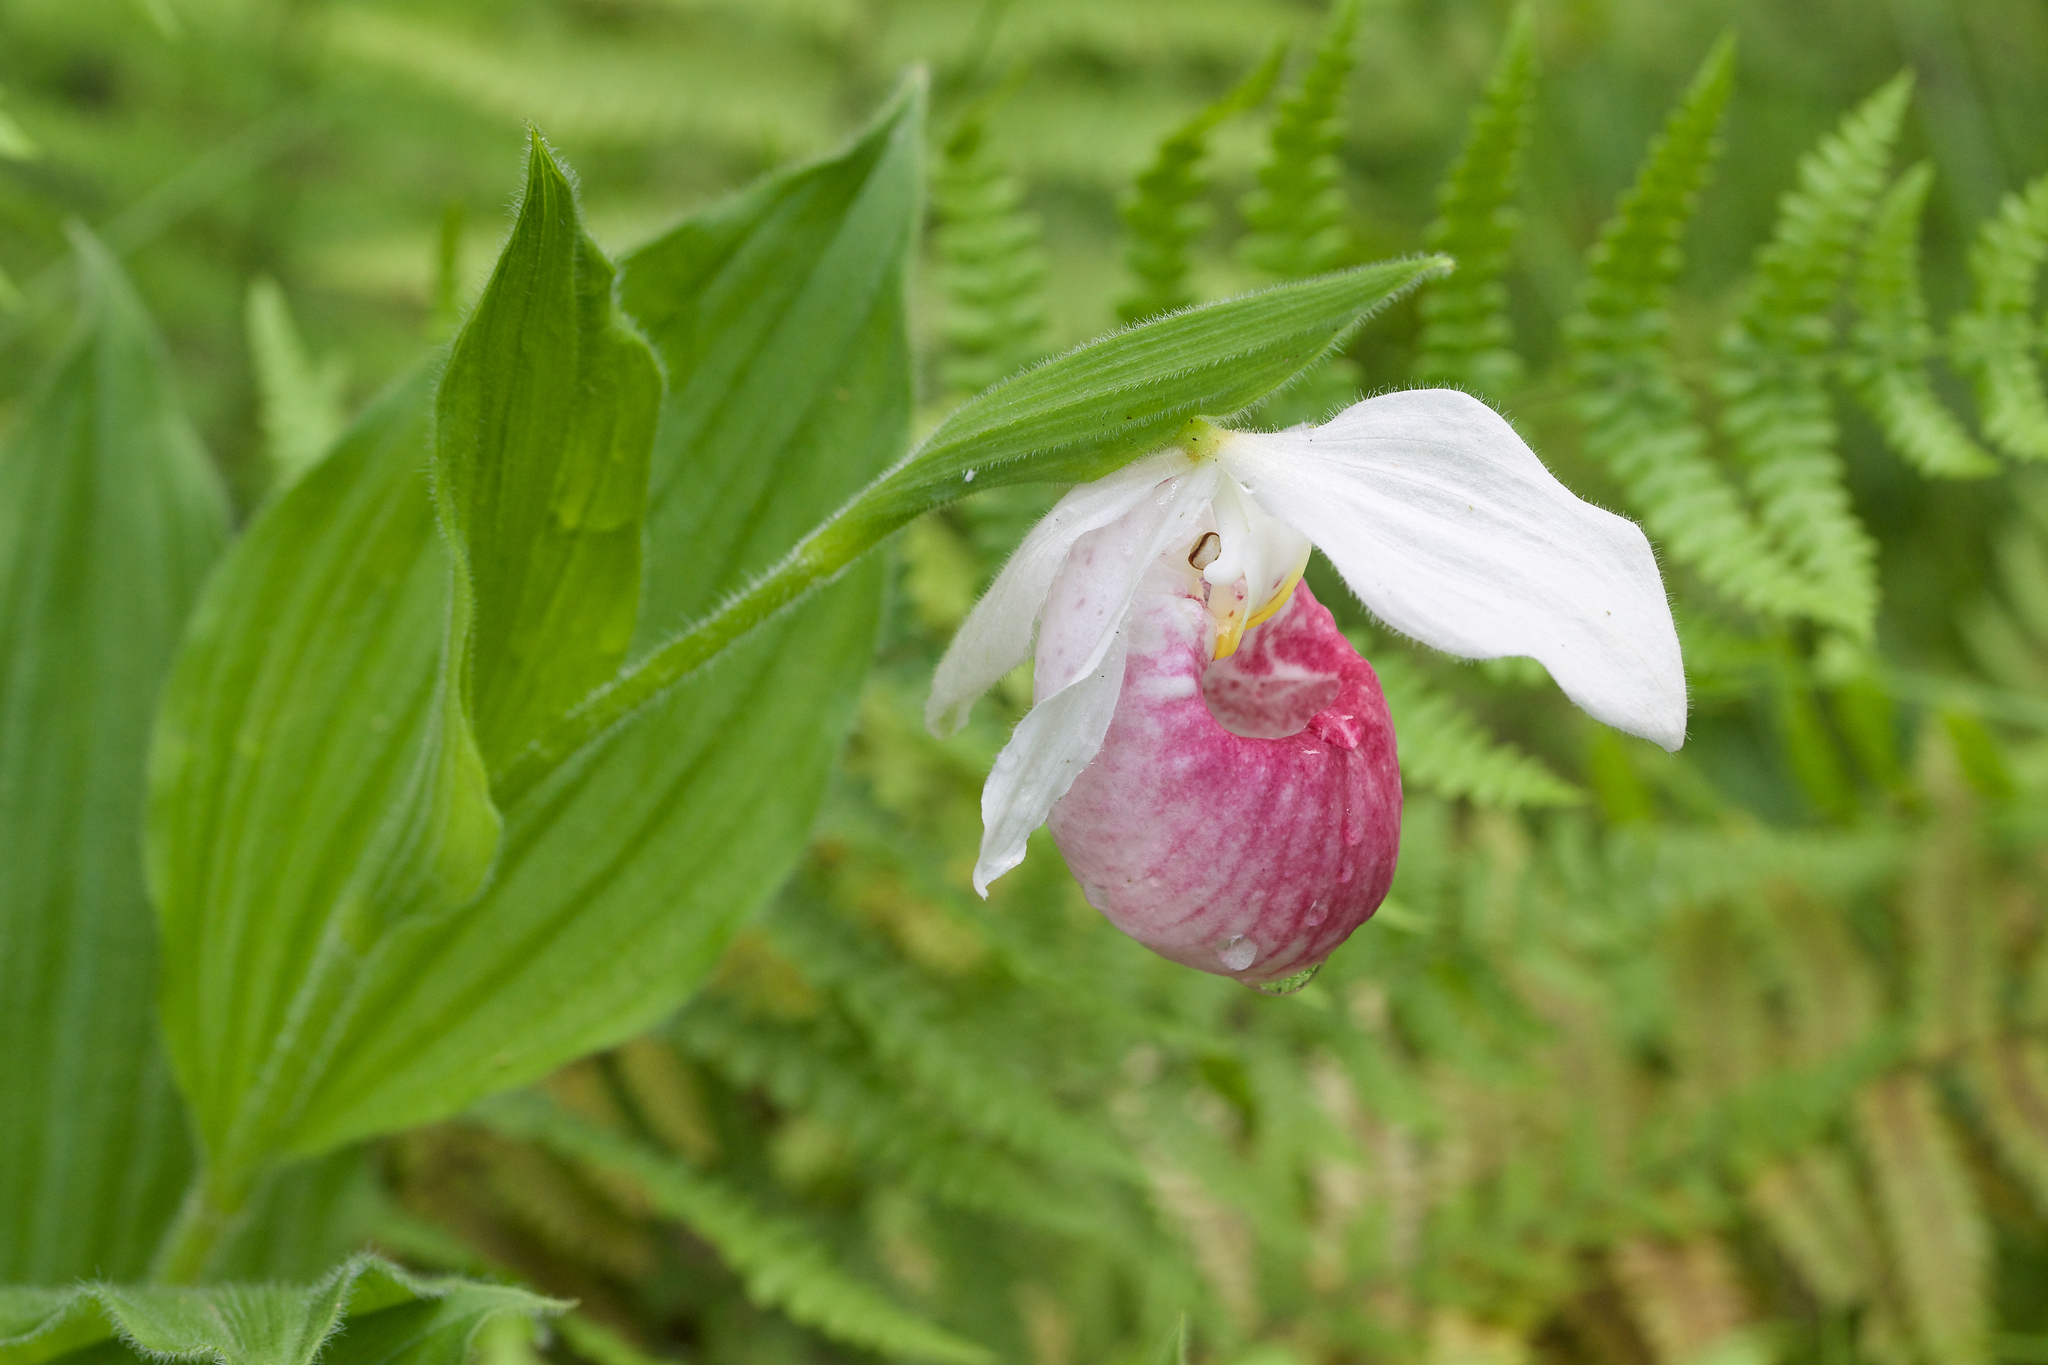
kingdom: Plantae
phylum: Tracheophyta
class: Liliopsida
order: Asparagales
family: Orchidaceae
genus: Cypripedium
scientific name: Cypripedium reginae
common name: Queen lady's-slipper
